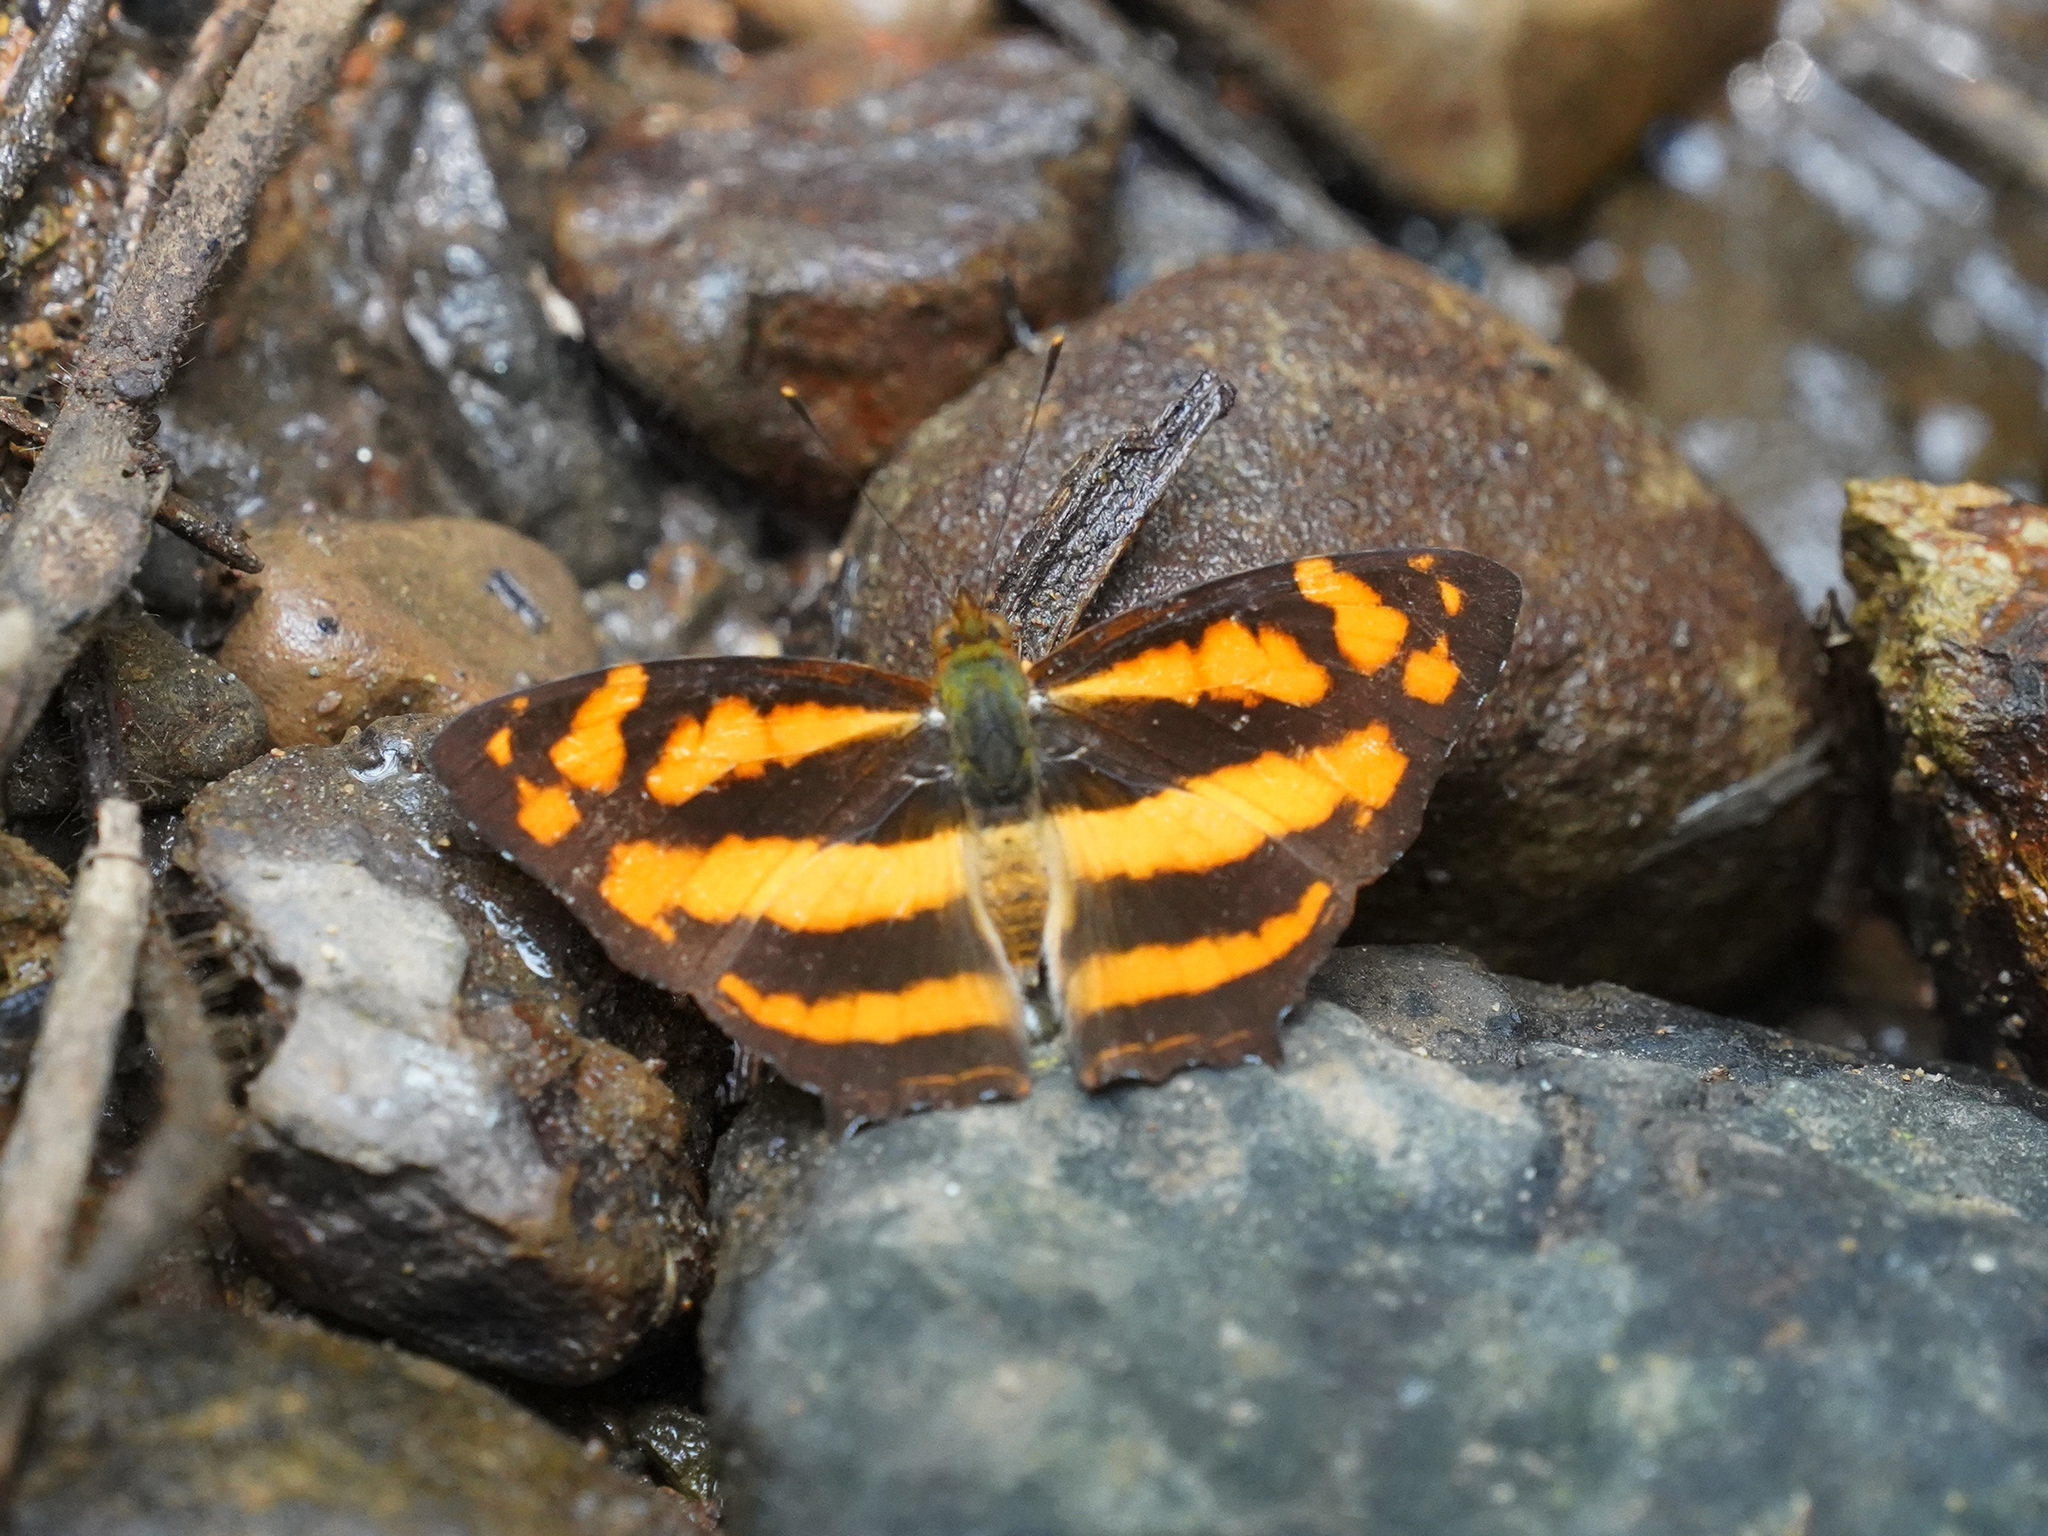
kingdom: Animalia
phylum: Arthropoda
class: Insecta
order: Lepidoptera
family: Nymphalidae
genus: Symbrenthia
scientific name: Symbrenthia hypselis
